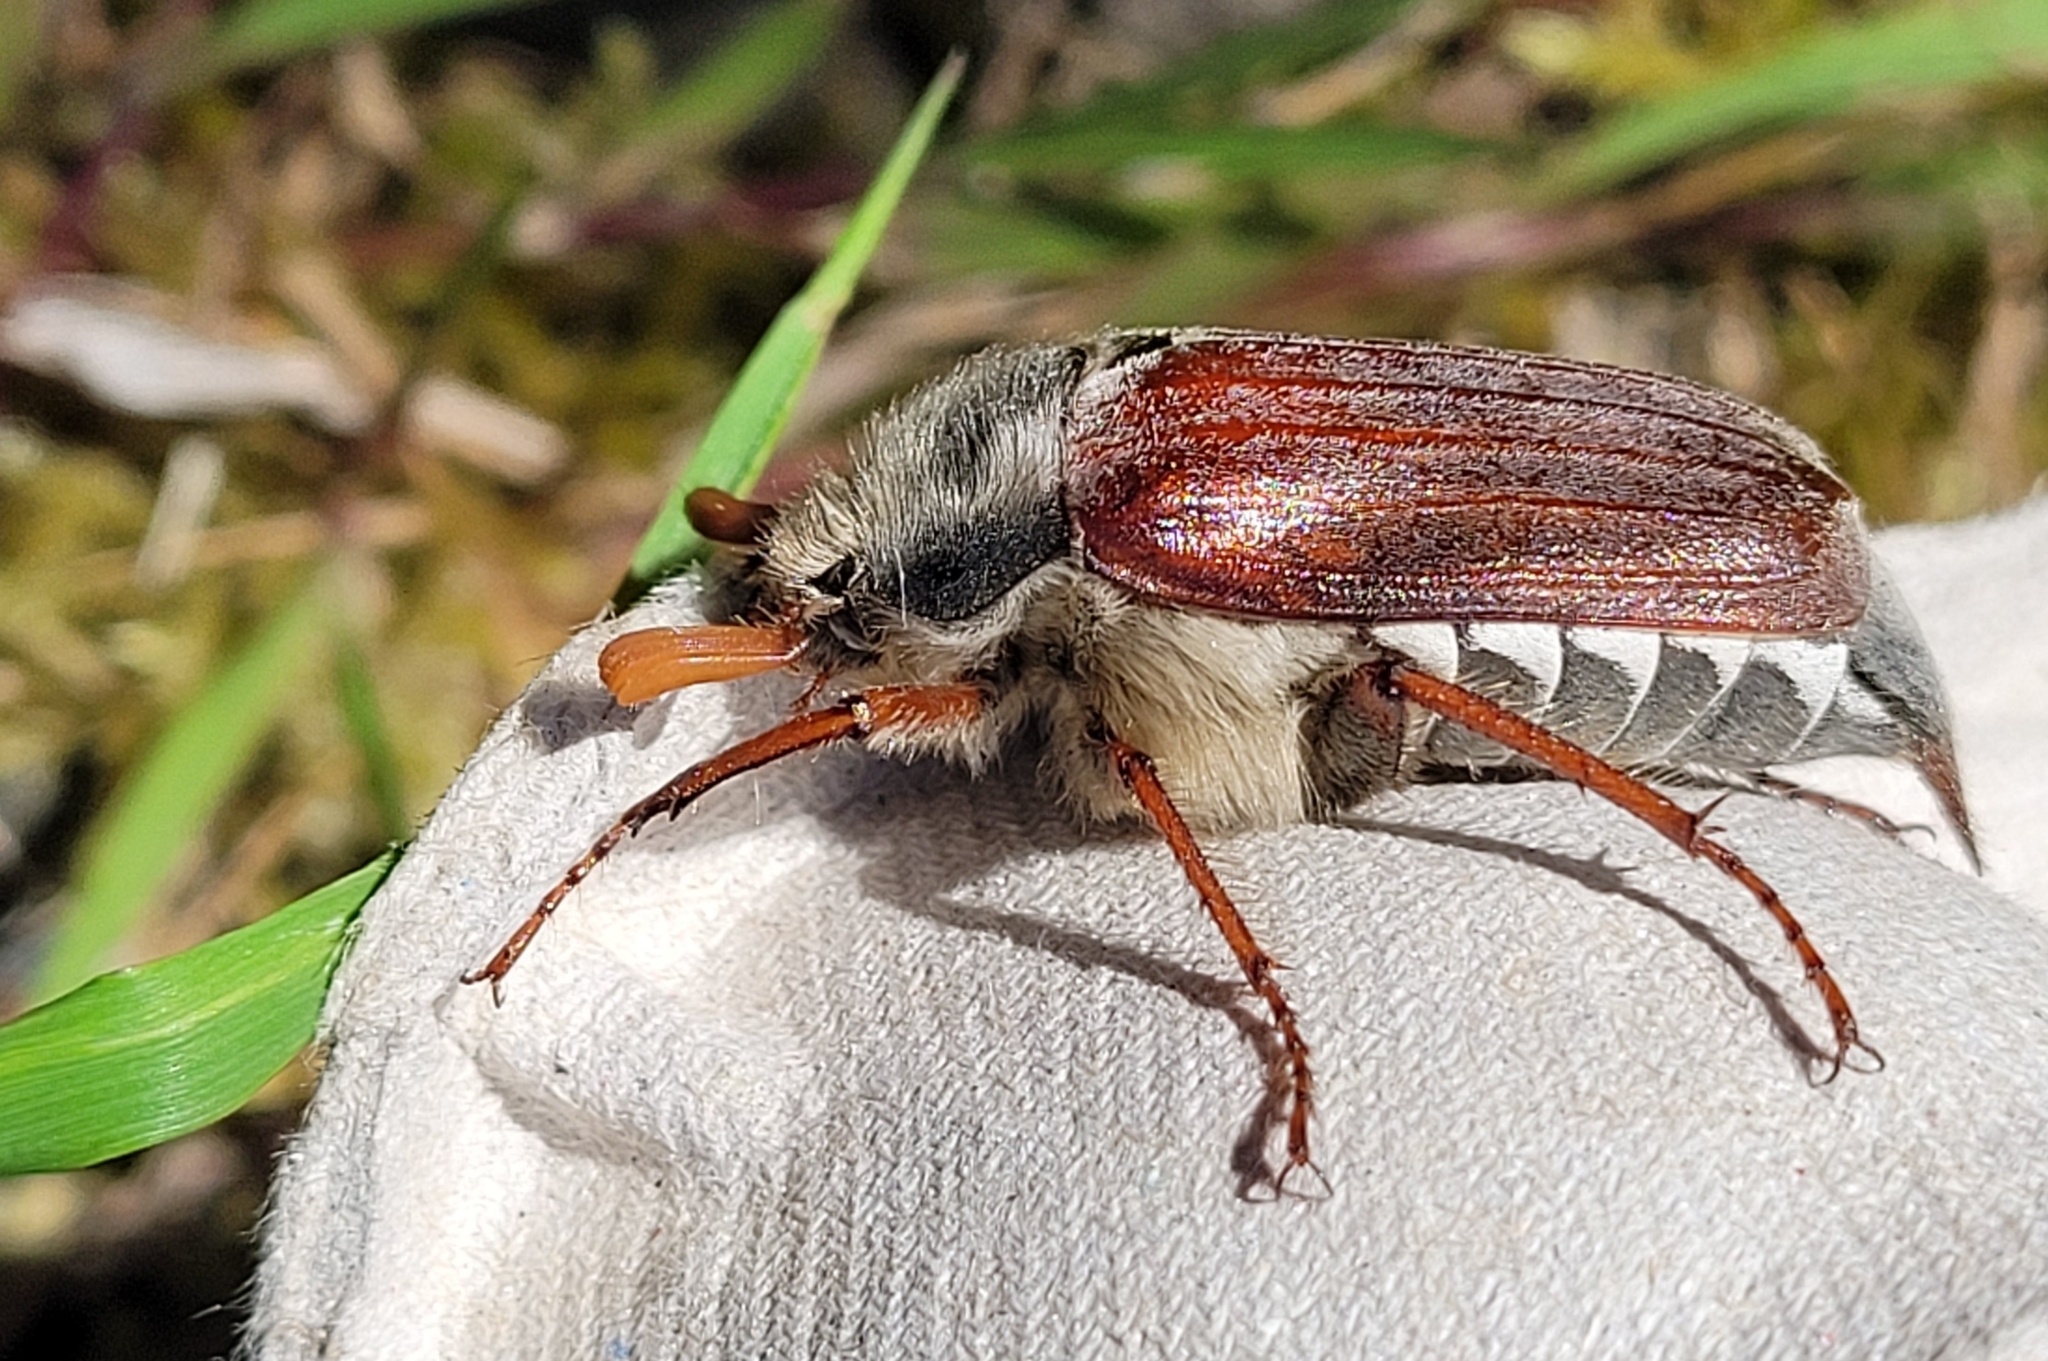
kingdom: Animalia
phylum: Arthropoda
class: Insecta
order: Coleoptera
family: Scarabaeidae
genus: Melolontha
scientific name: Melolontha melolontha
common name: Cockchafer maybeetle
